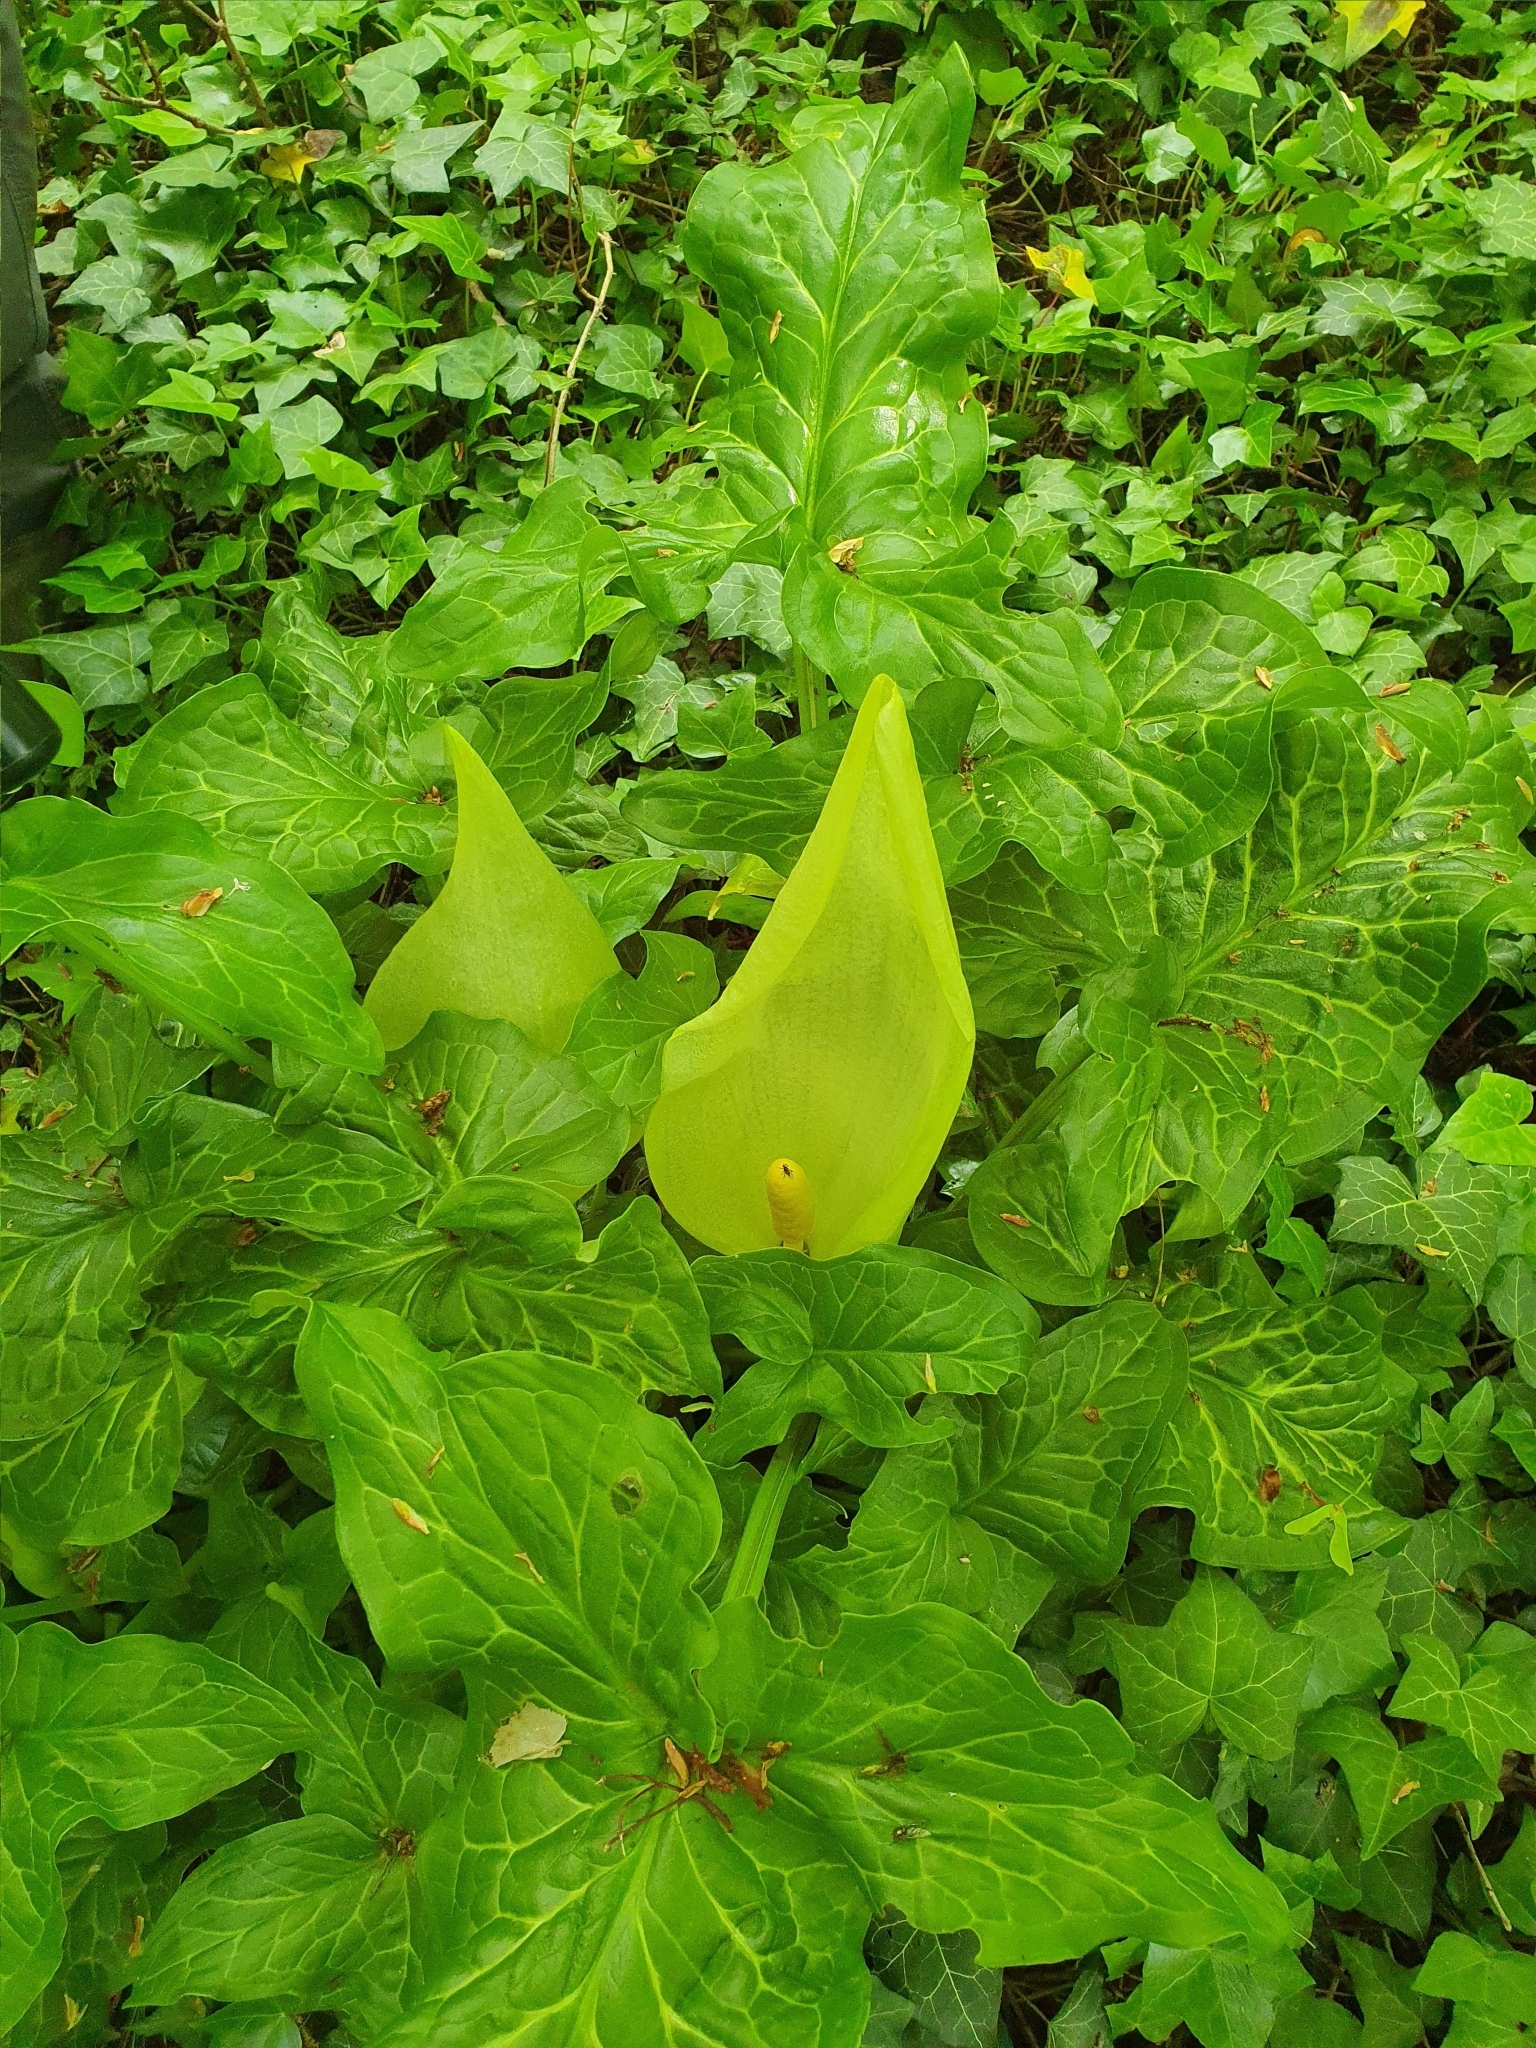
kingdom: Plantae
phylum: Tracheophyta
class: Liliopsida
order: Alismatales
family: Araceae
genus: Arum
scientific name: Arum italicum
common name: Italian lords-and-ladies
